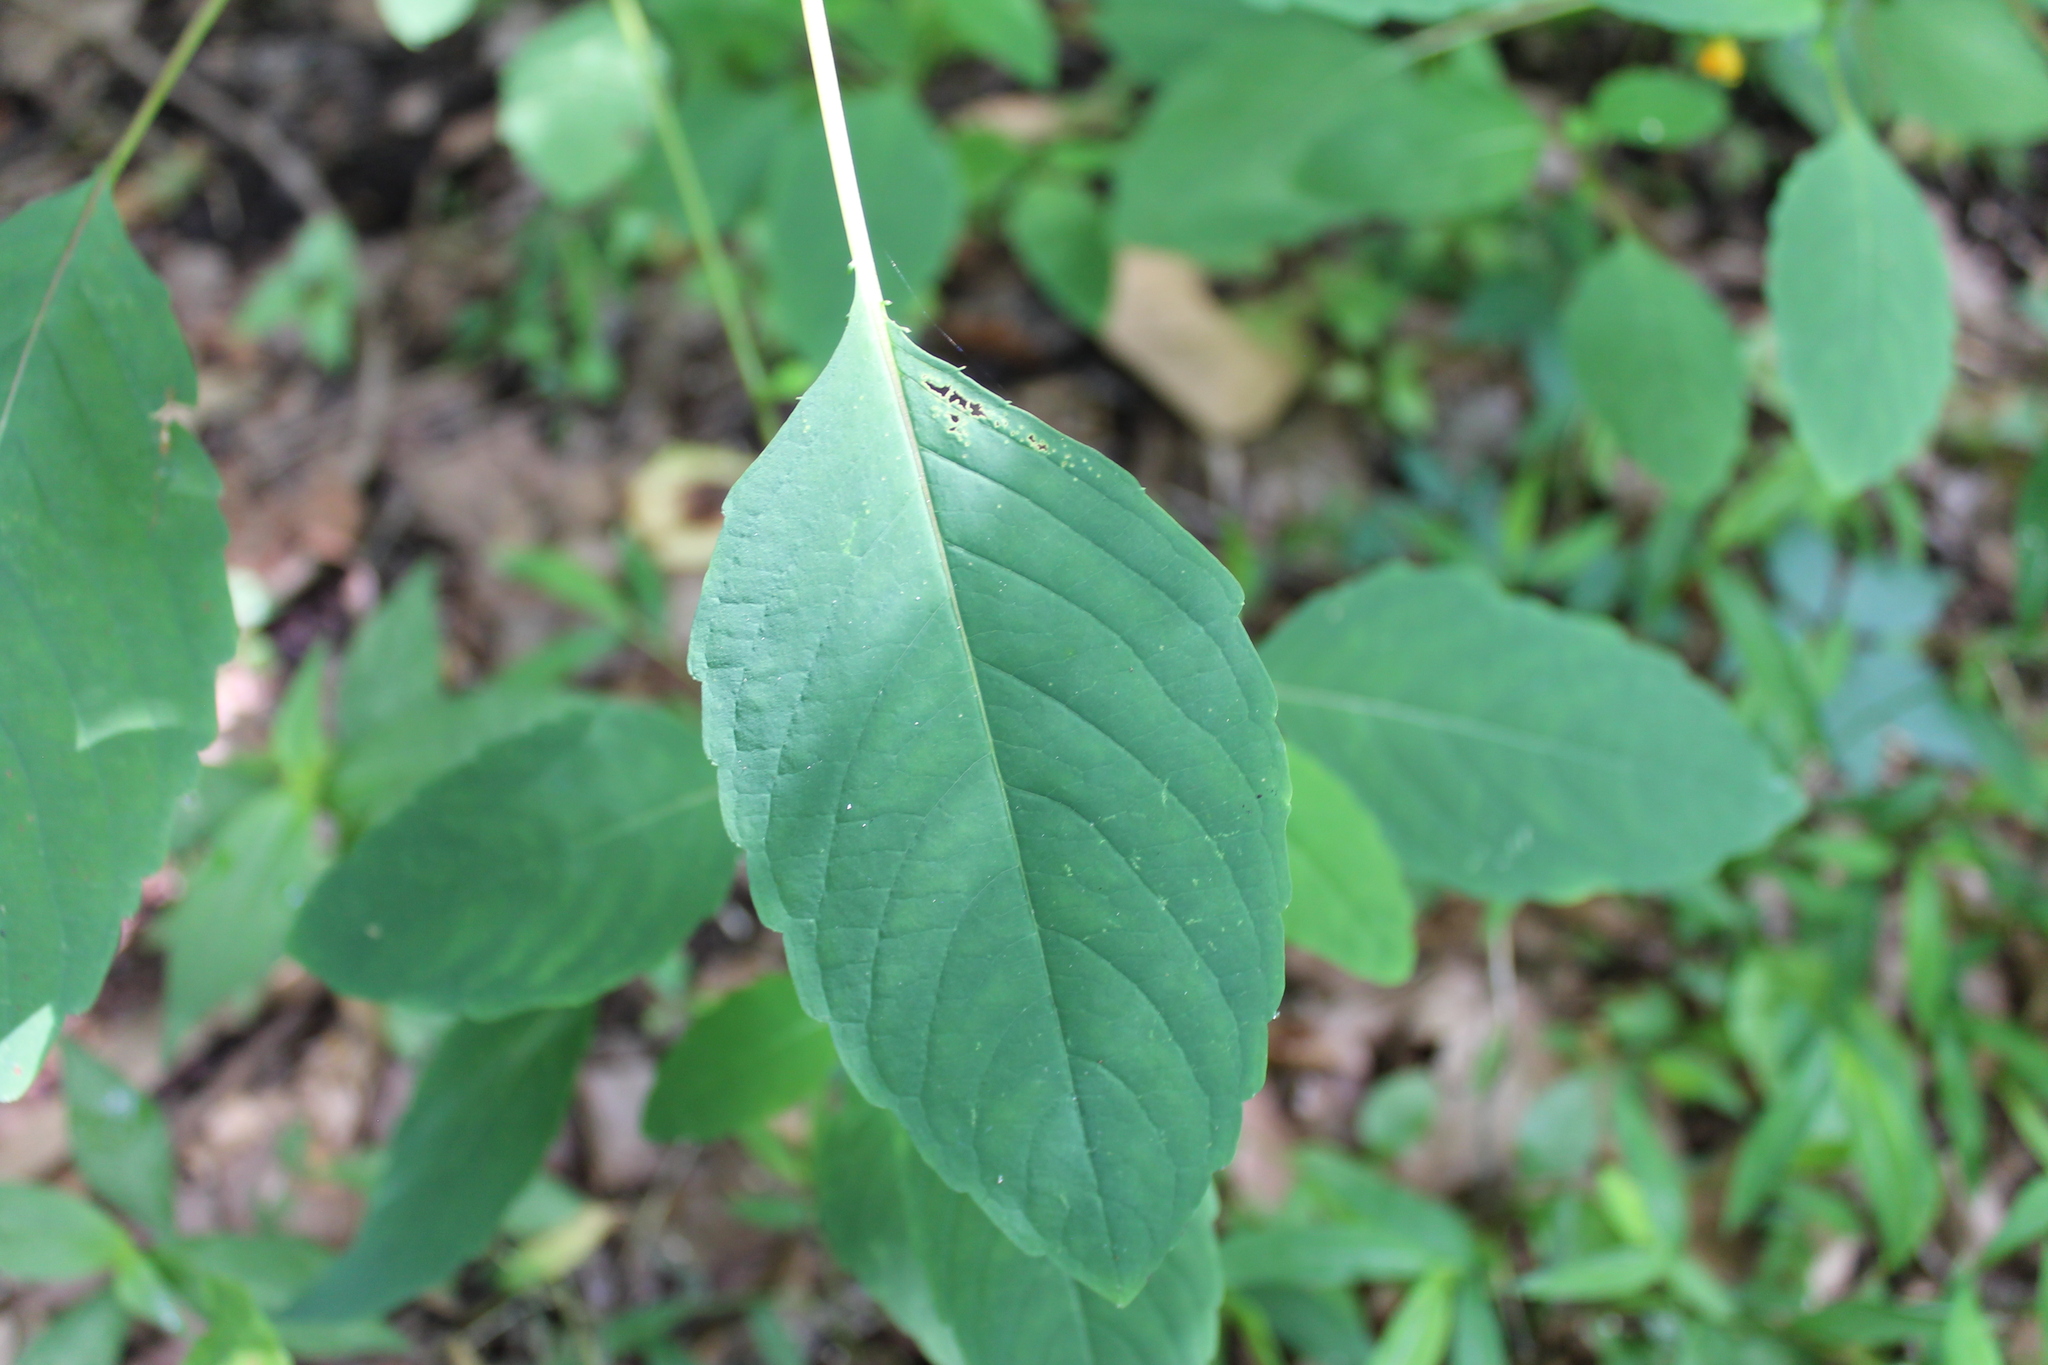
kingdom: Plantae
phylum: Tracheophyta
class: Magnoliopsida
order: Ericales
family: Balsaminaceae
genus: Impatiens
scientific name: Impatiens capensis
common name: Orange balsam
